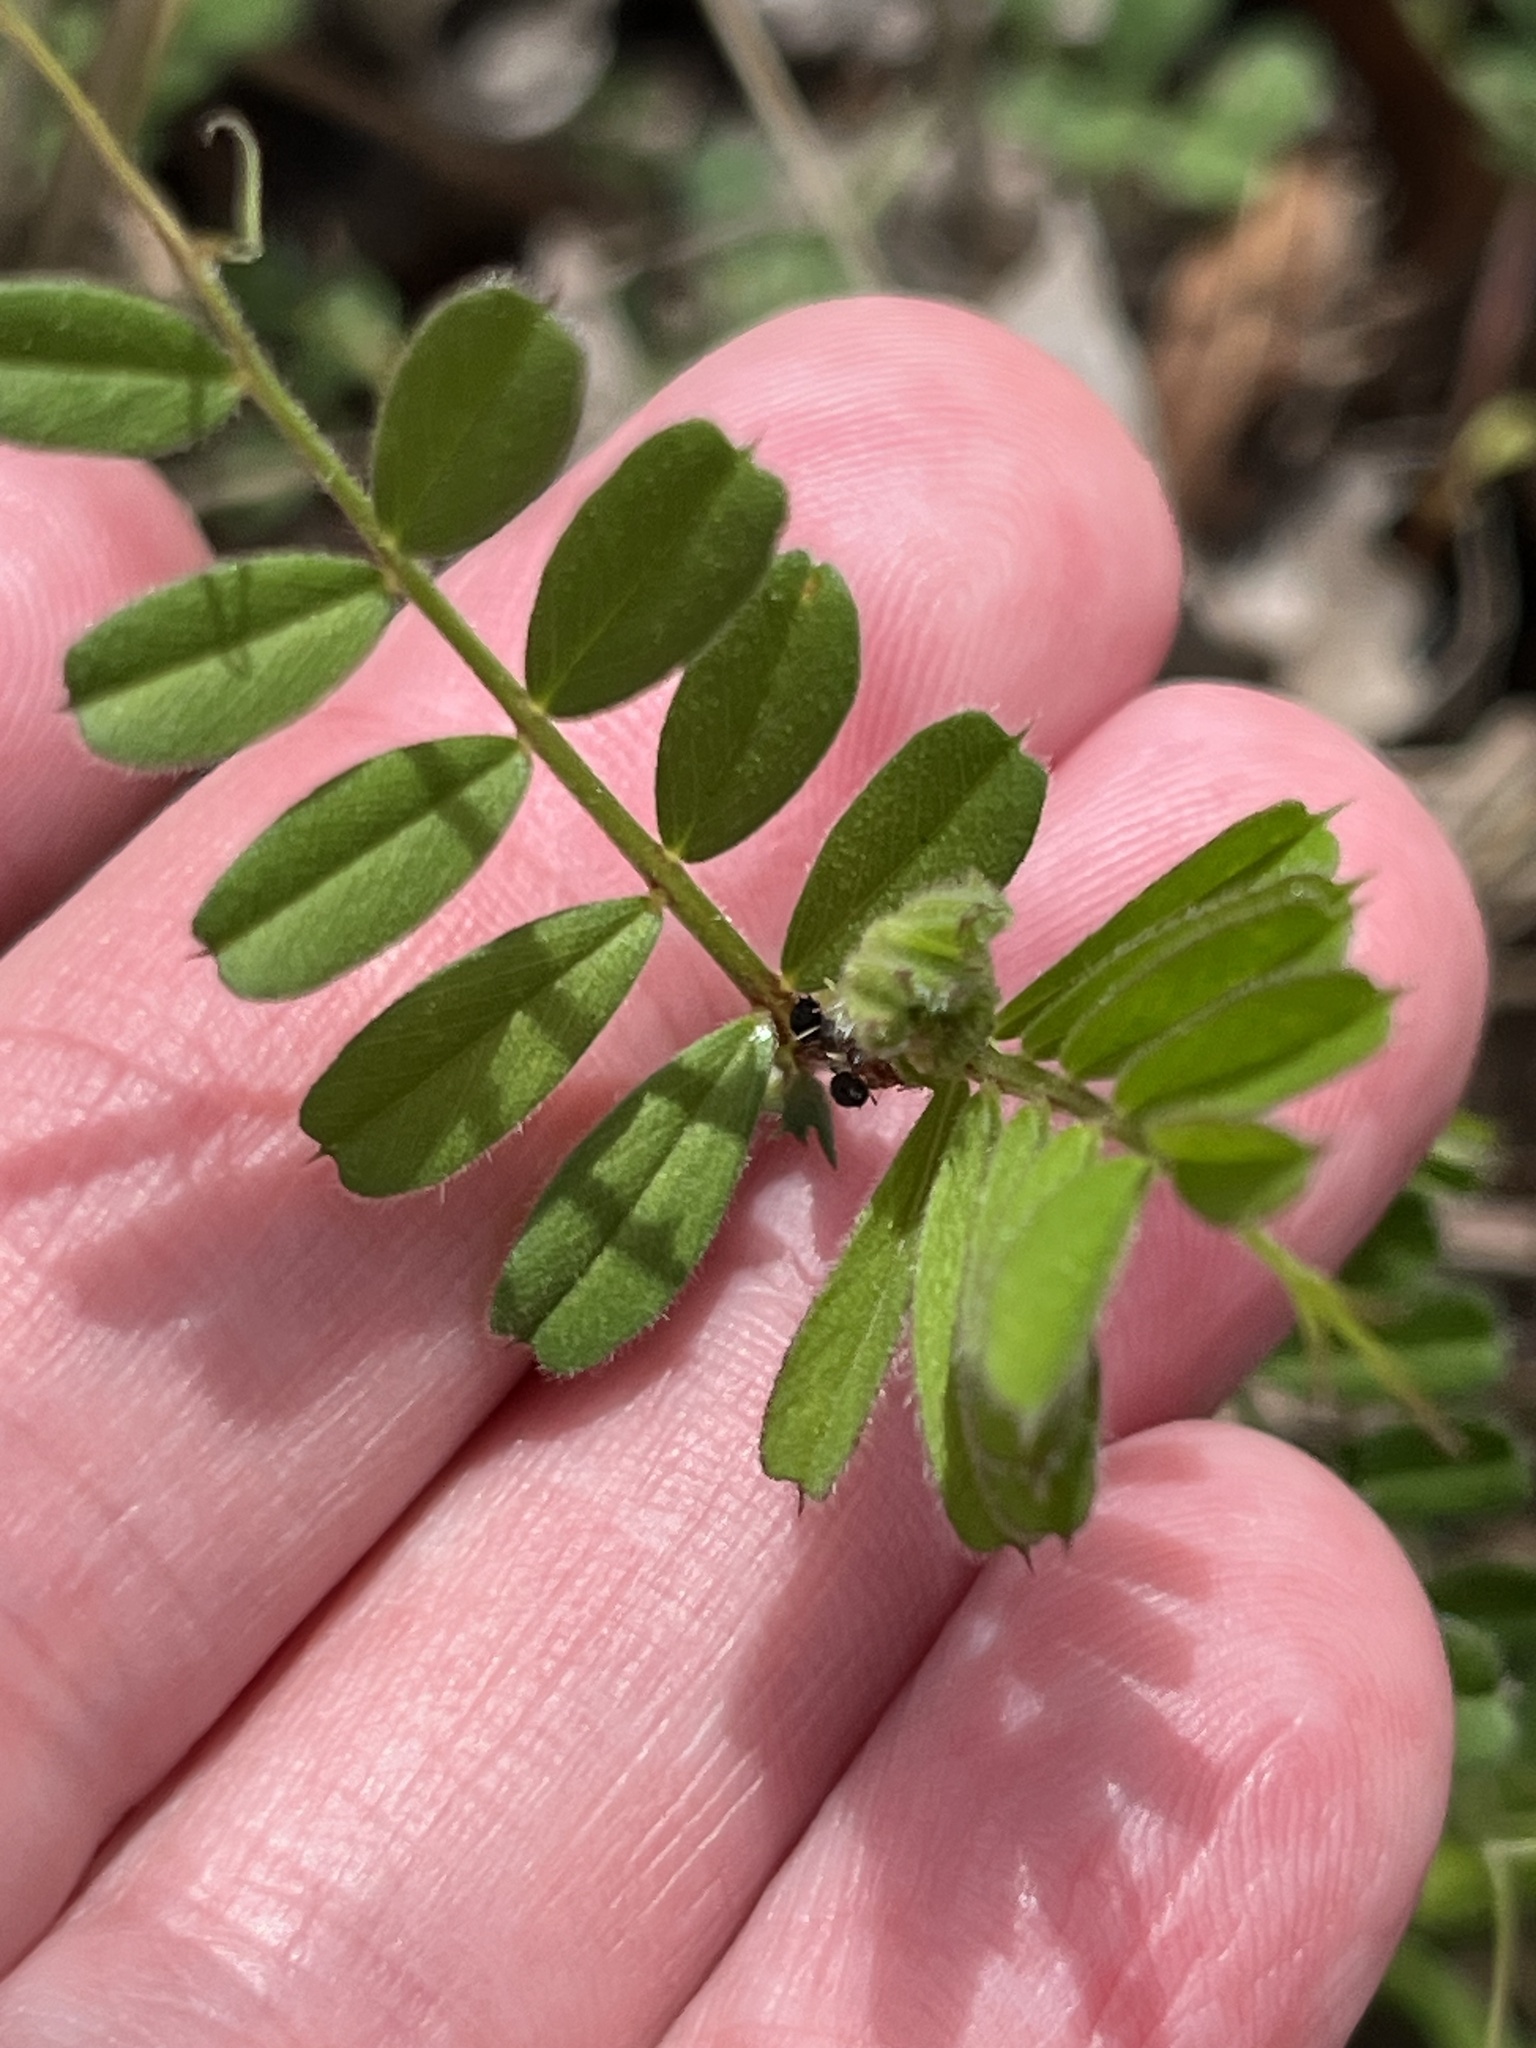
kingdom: Plantae
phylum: Tracheophyta
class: Magnoliopsida
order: Fabales
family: Fabaceae
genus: Vicia
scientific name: Vicia sativa
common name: Garden vetch
